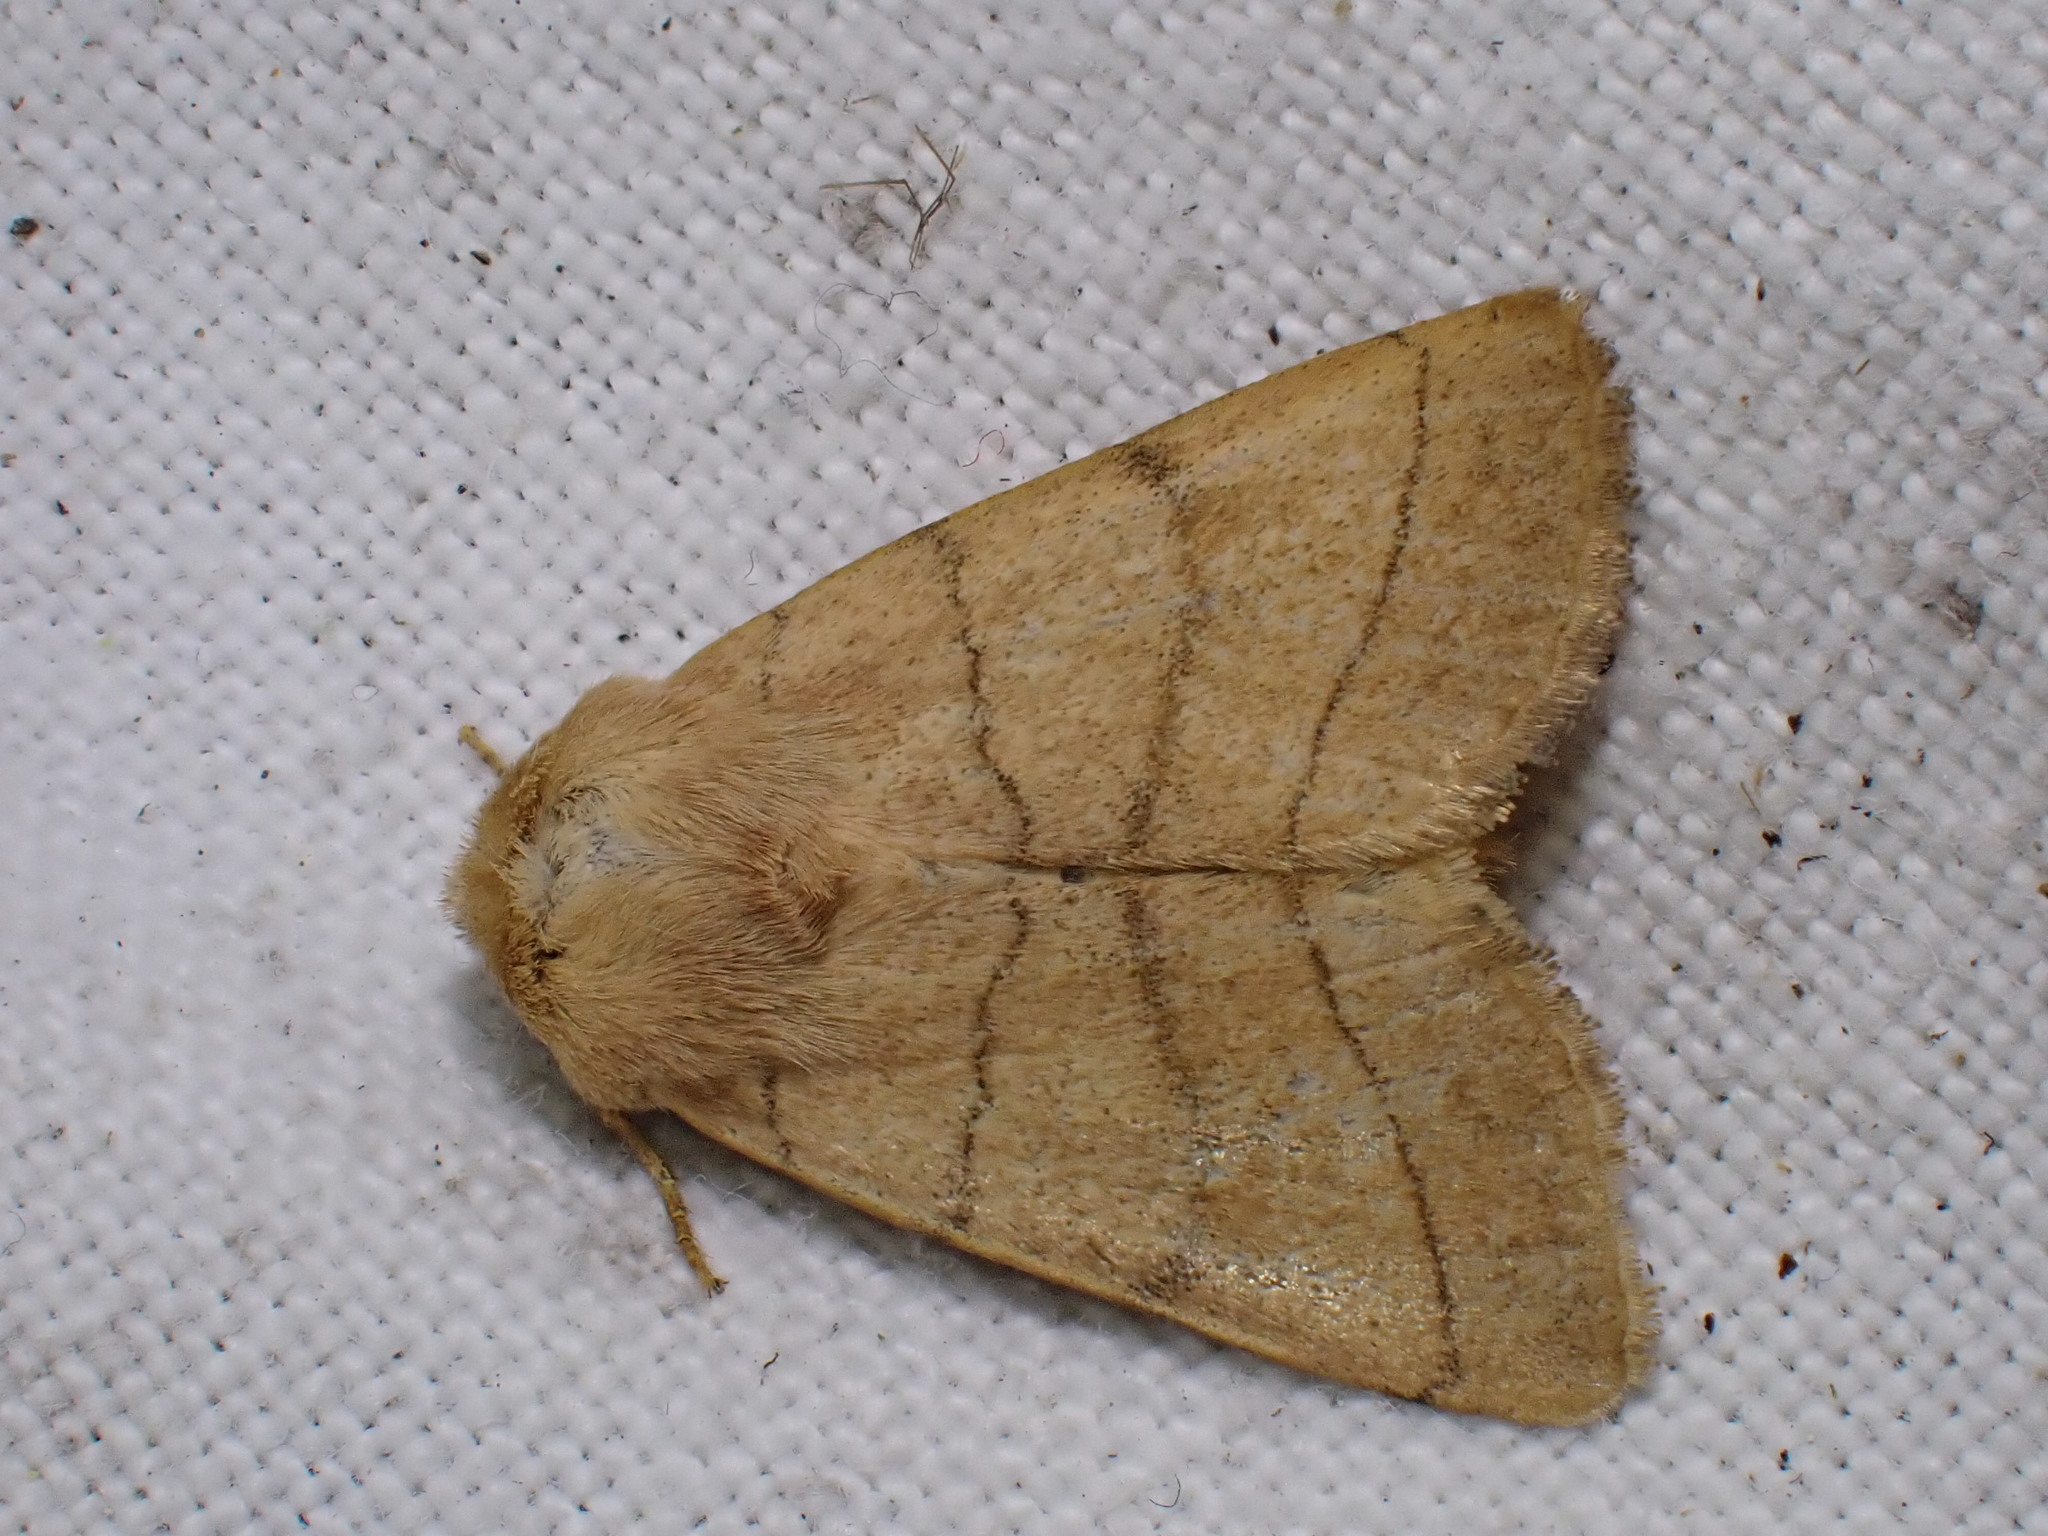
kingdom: Animalia
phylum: Arthropoda
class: Insecta
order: Lepidoptera
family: Noctuidae
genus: Charanyca
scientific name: Charanyca trigrammica
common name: Treble lines
